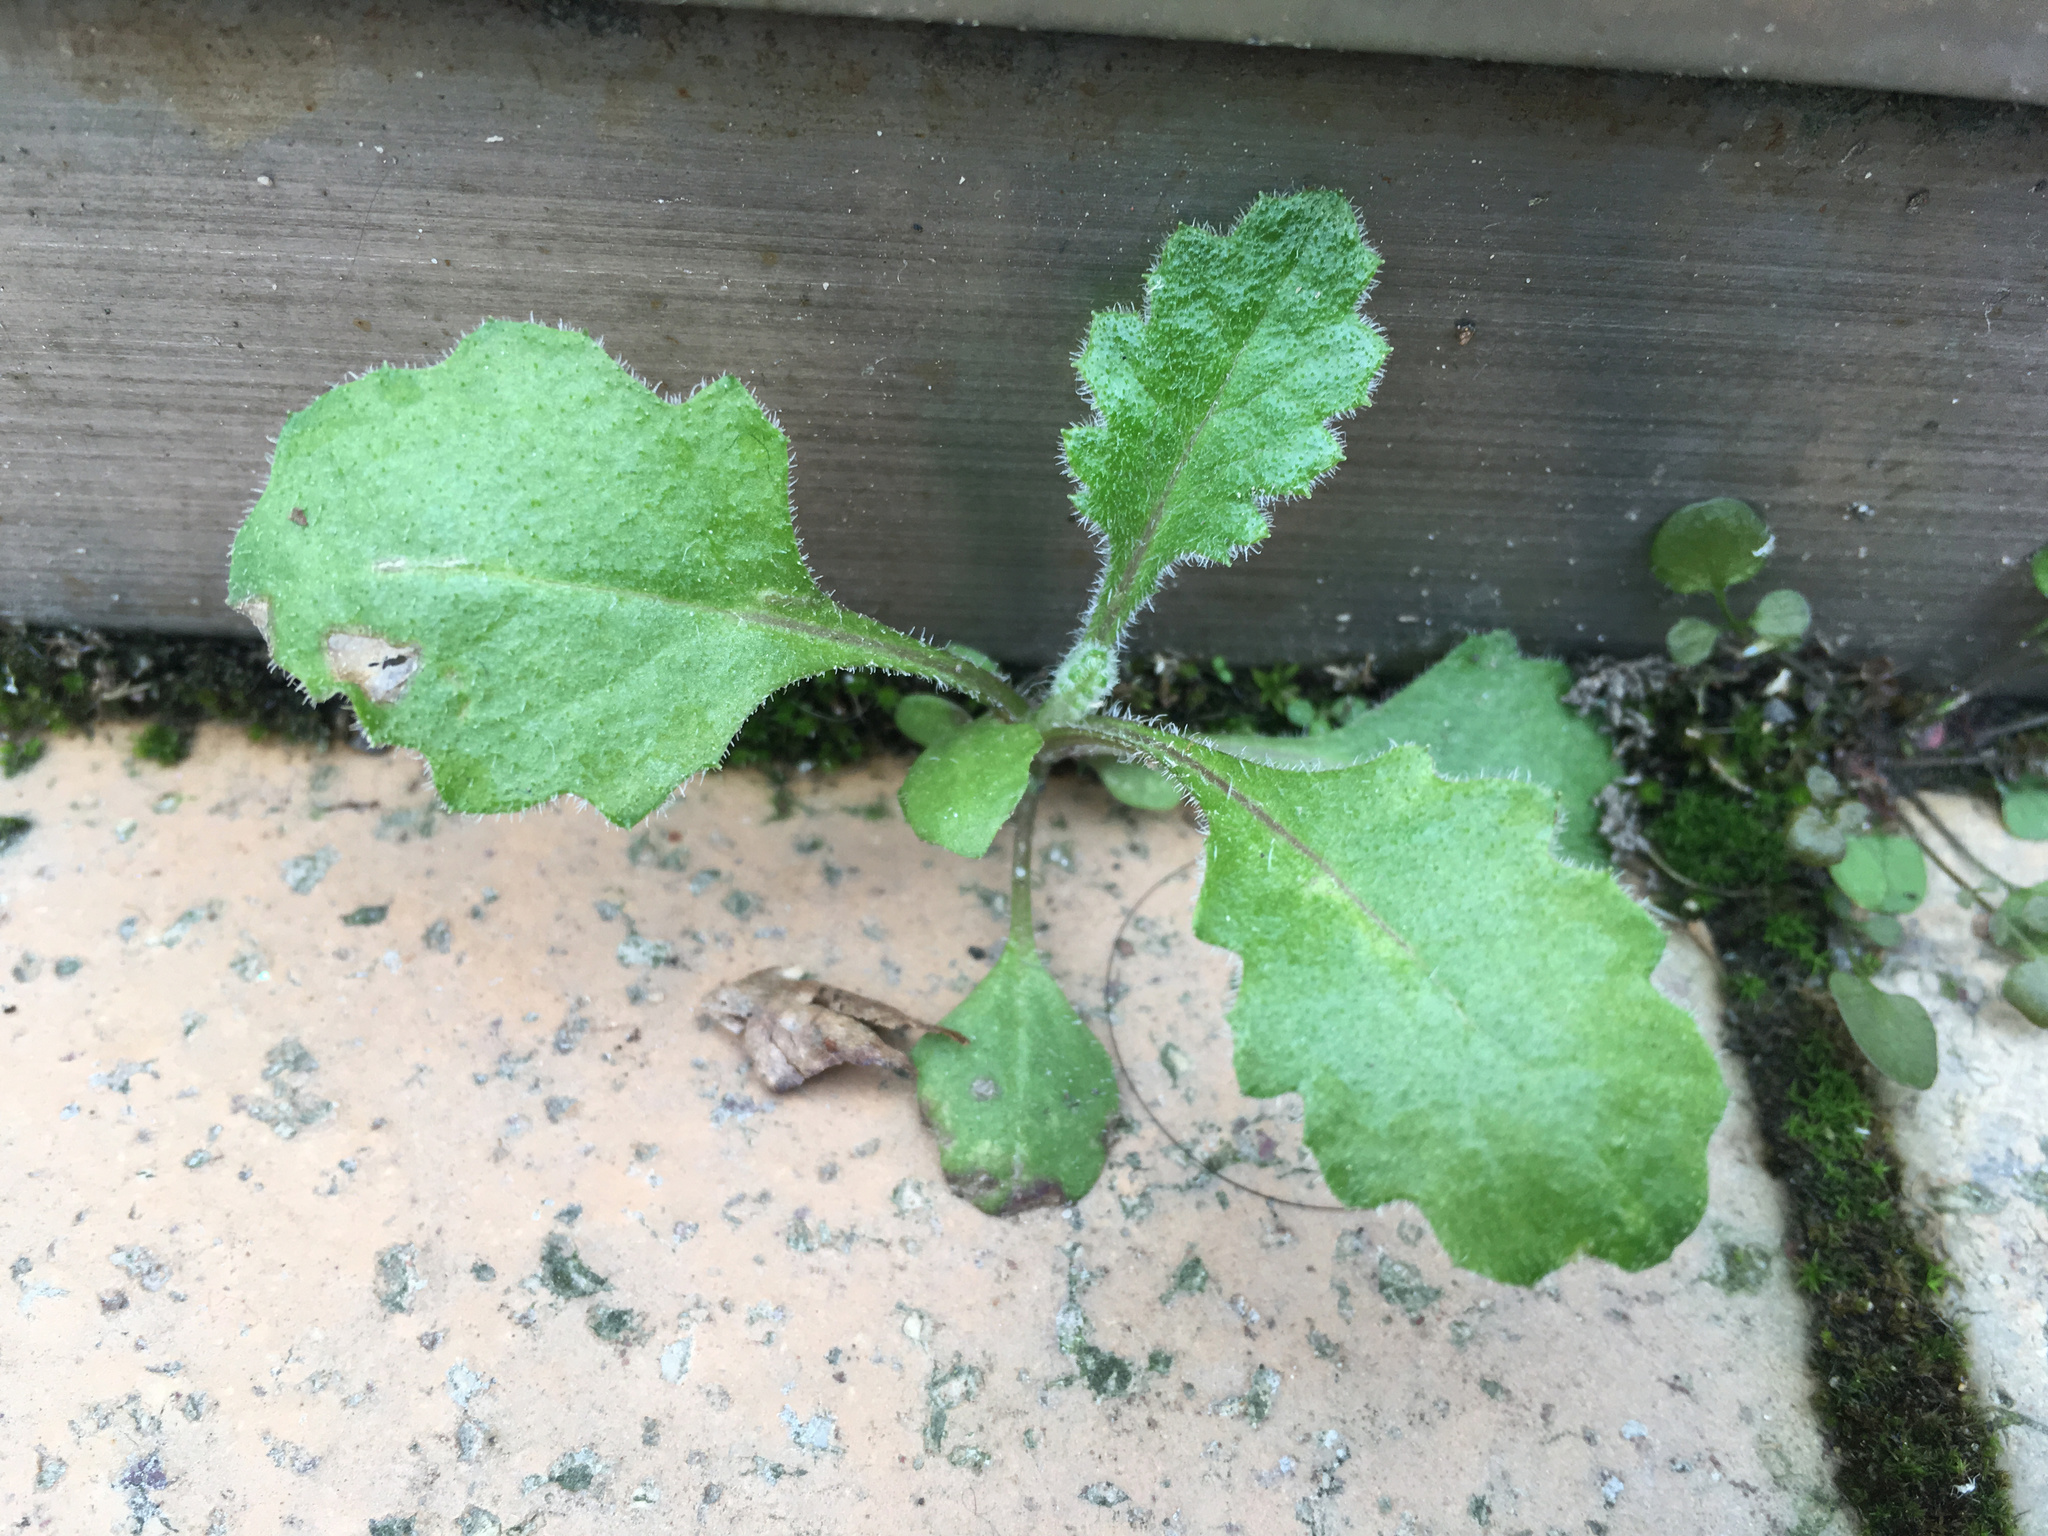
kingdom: Plantae
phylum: Tracheophyta
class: Magnoliopsida
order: Asterales
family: Asteraceae
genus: Senecio
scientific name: Senecio glomeratus
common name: Cutleaf burnweed
